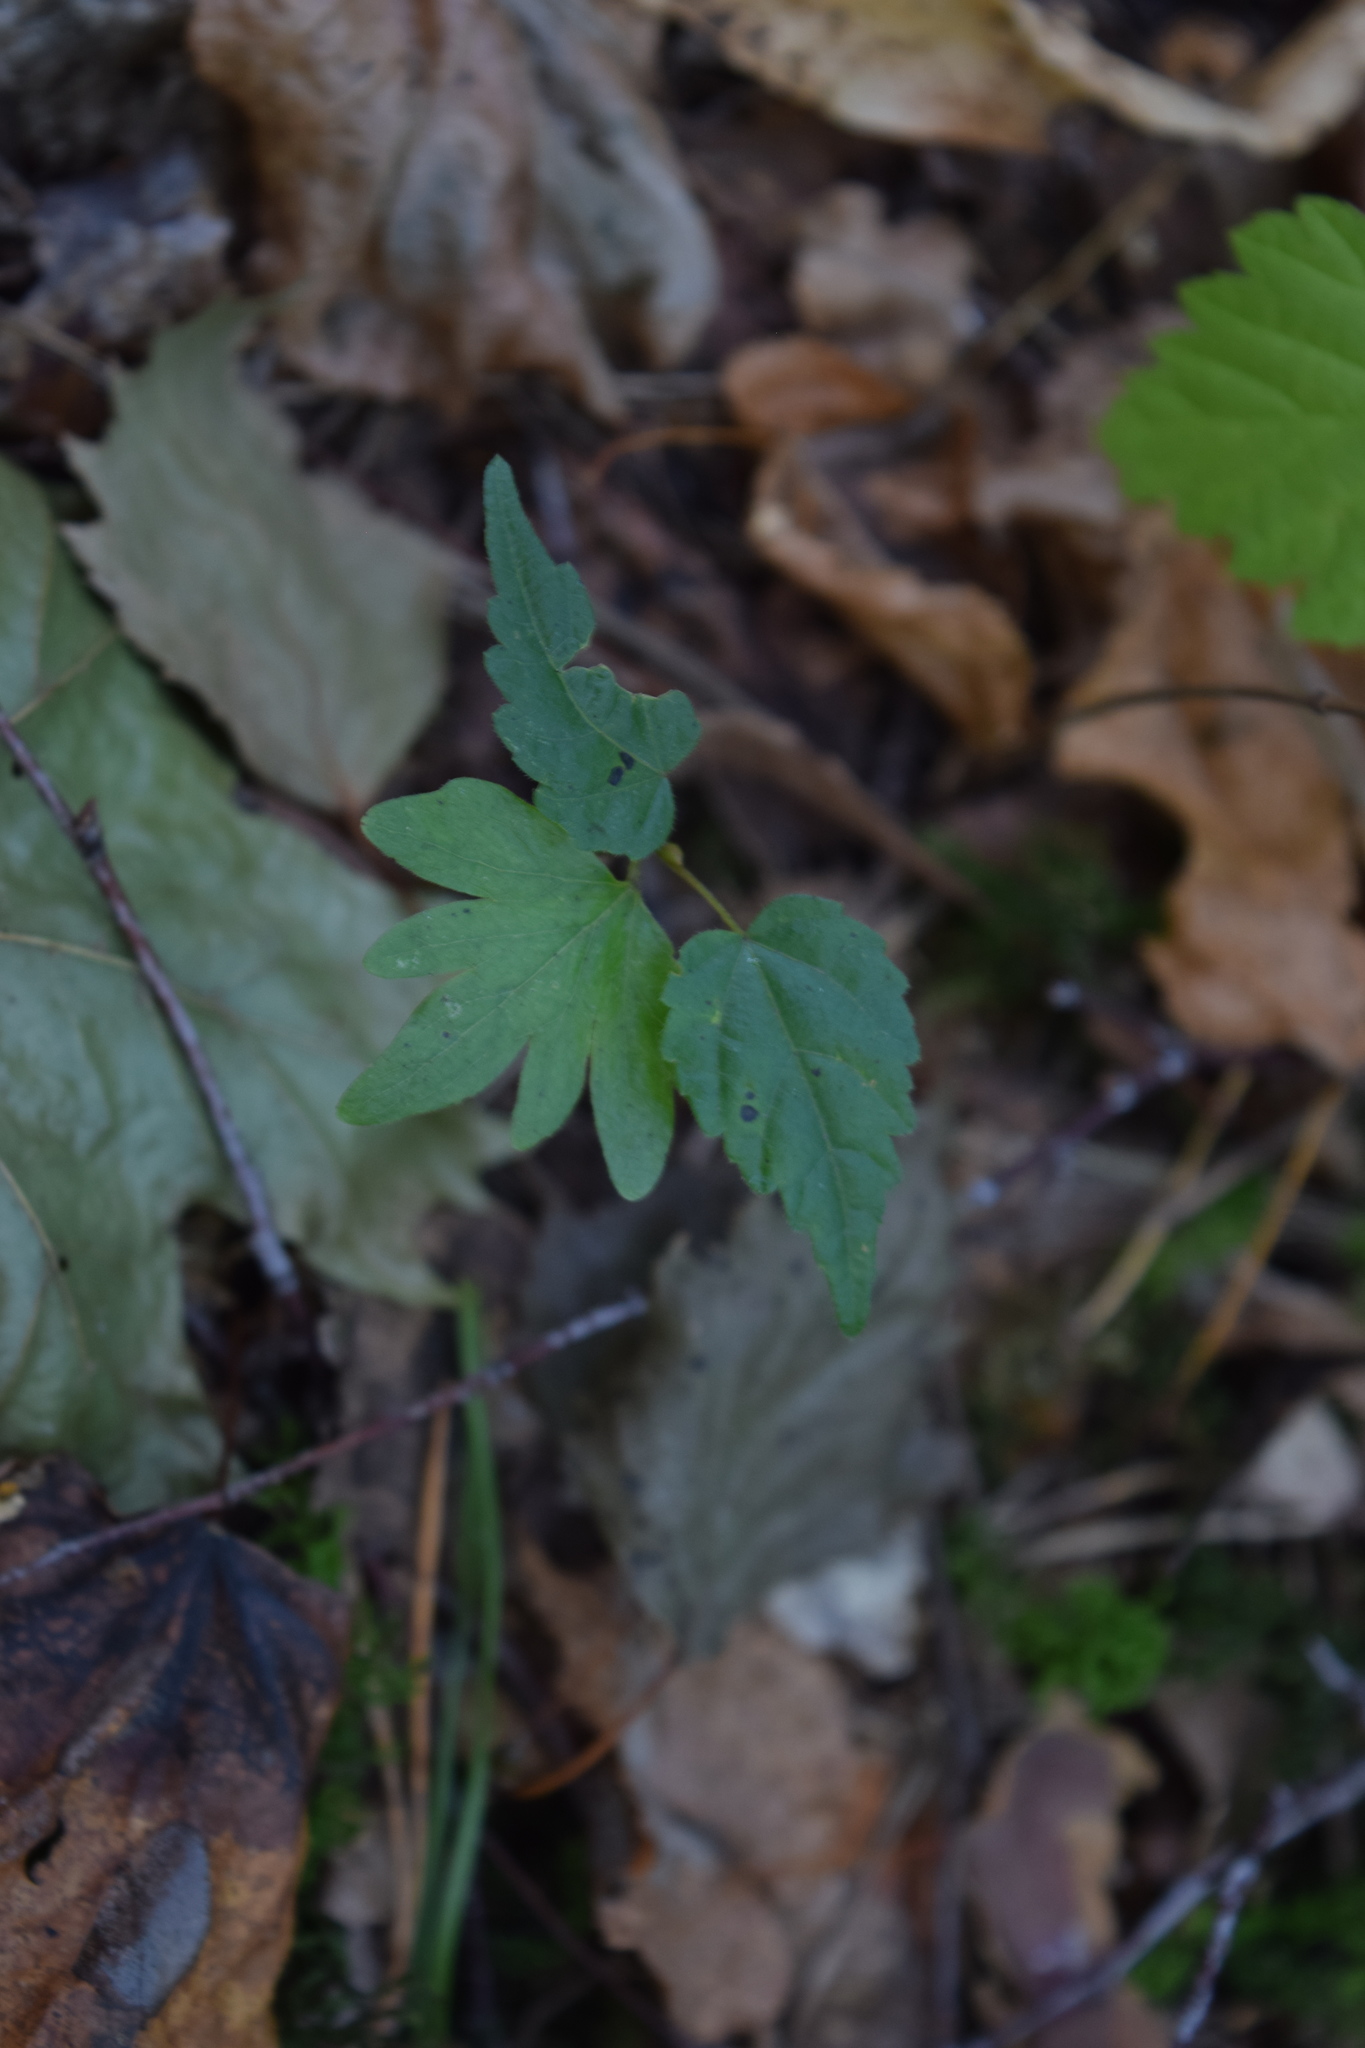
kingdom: Plantae
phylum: Tracheophyta
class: Magnoliopsida
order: Malvales
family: Malvaceae
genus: Tilia
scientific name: Tilia cordata
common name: Small-leaved lime
